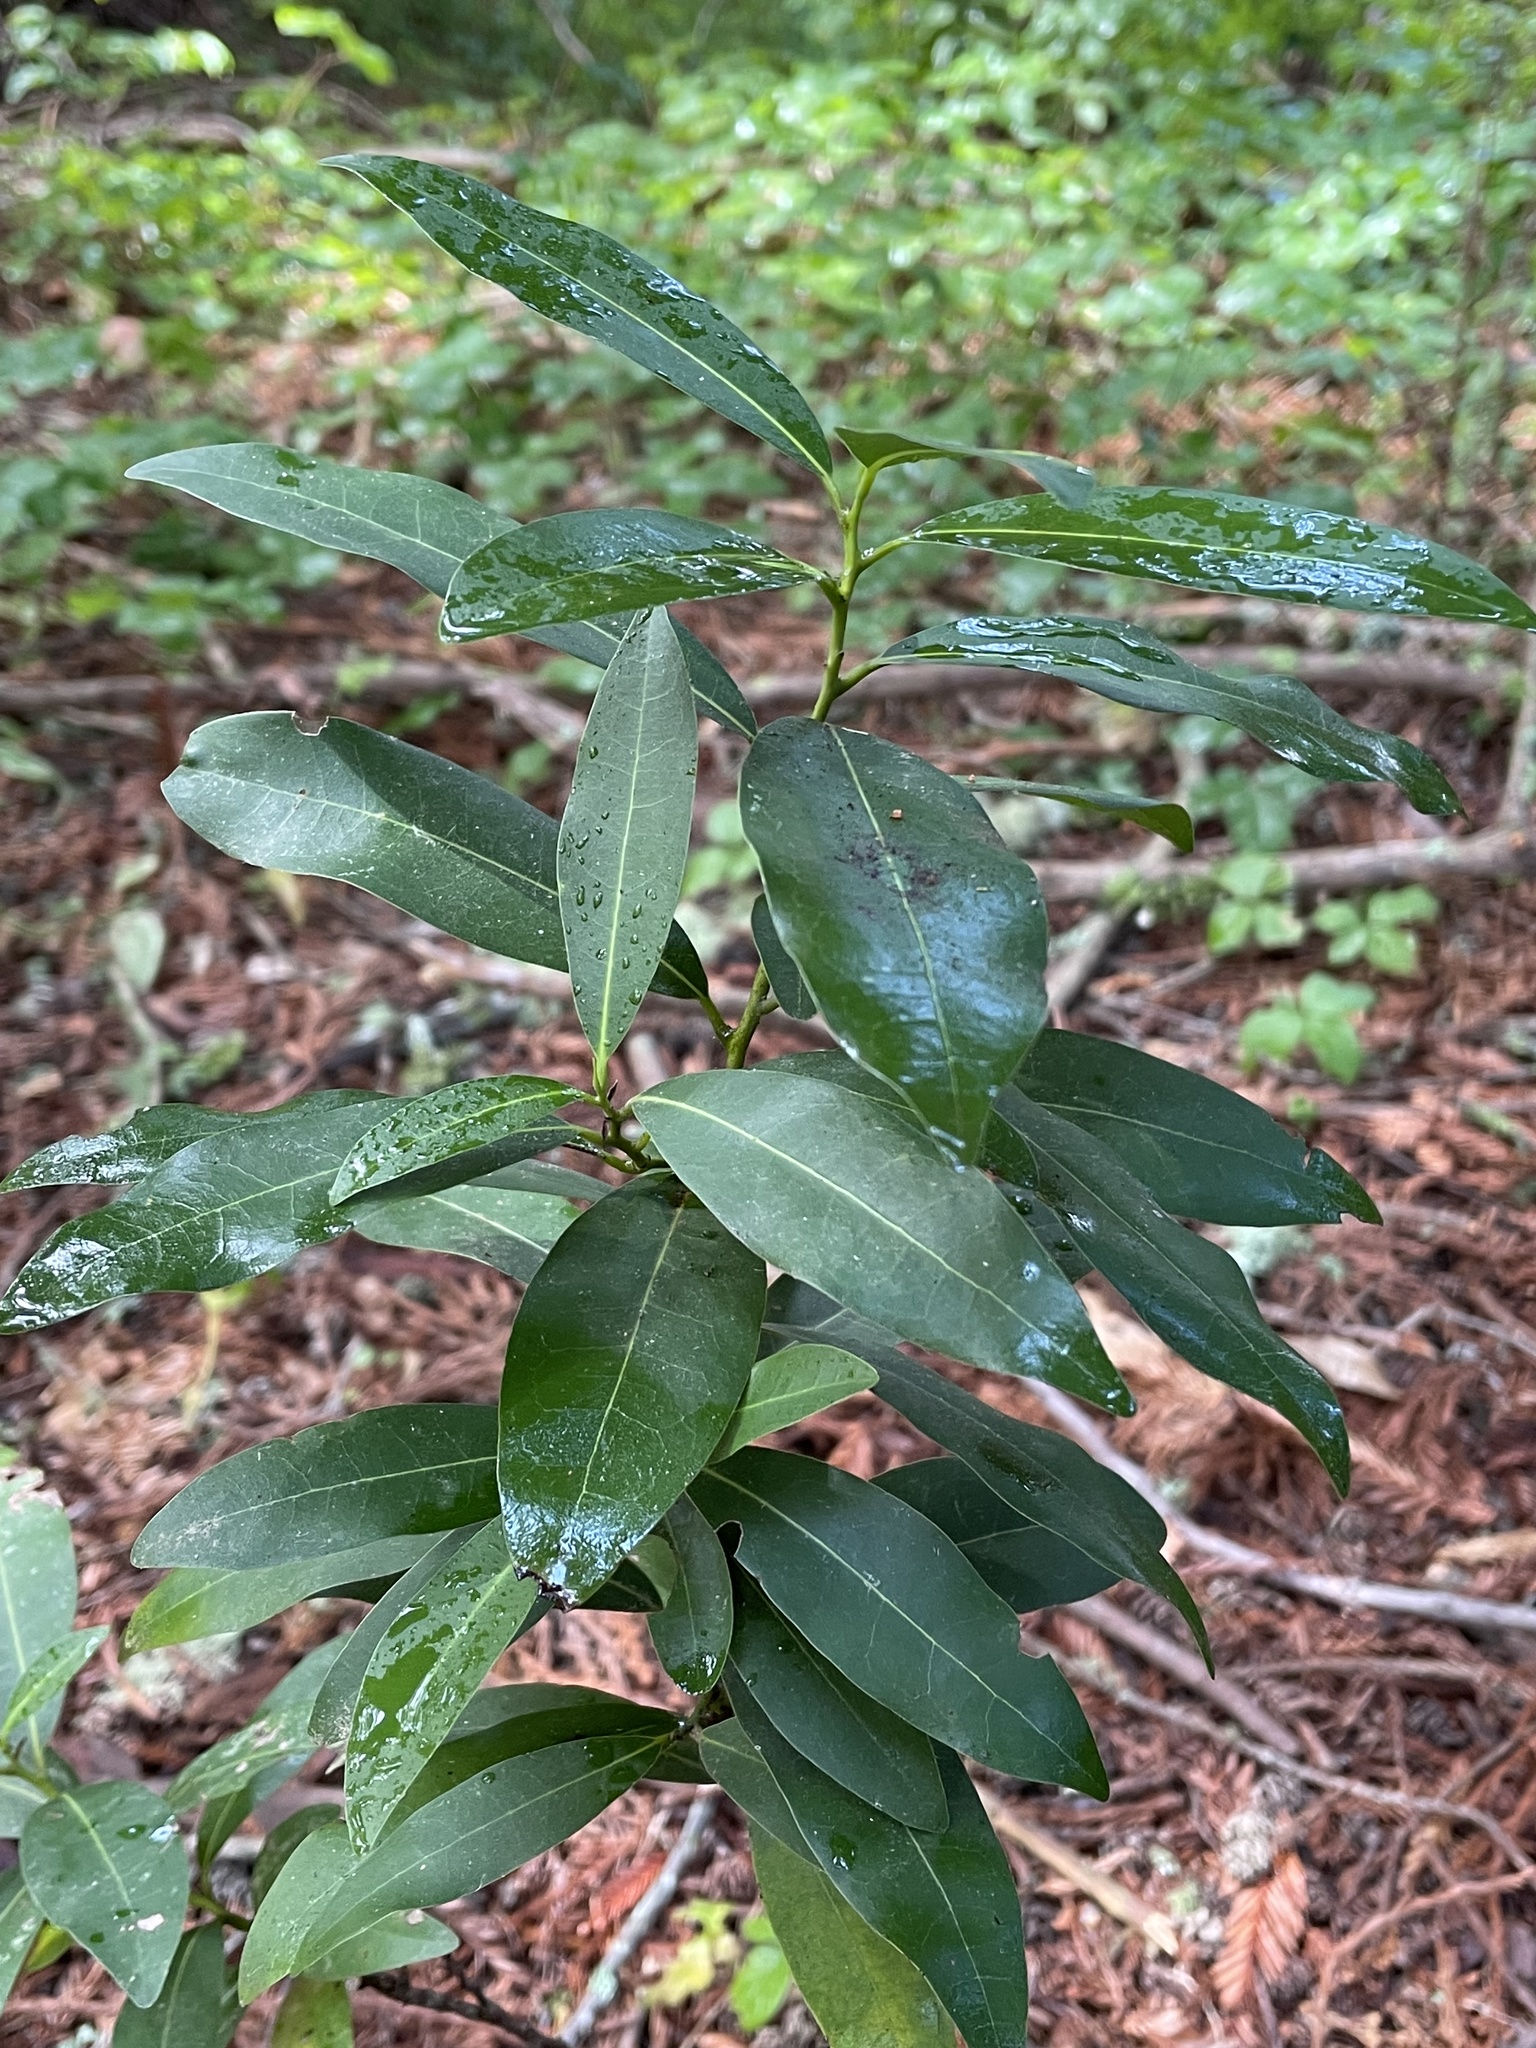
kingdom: Plantae
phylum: Tracheophyta
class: Magnoliopsida
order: Laurales
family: Lauraceae
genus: Umbellularia
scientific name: Umbellularia californica
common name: California bay
